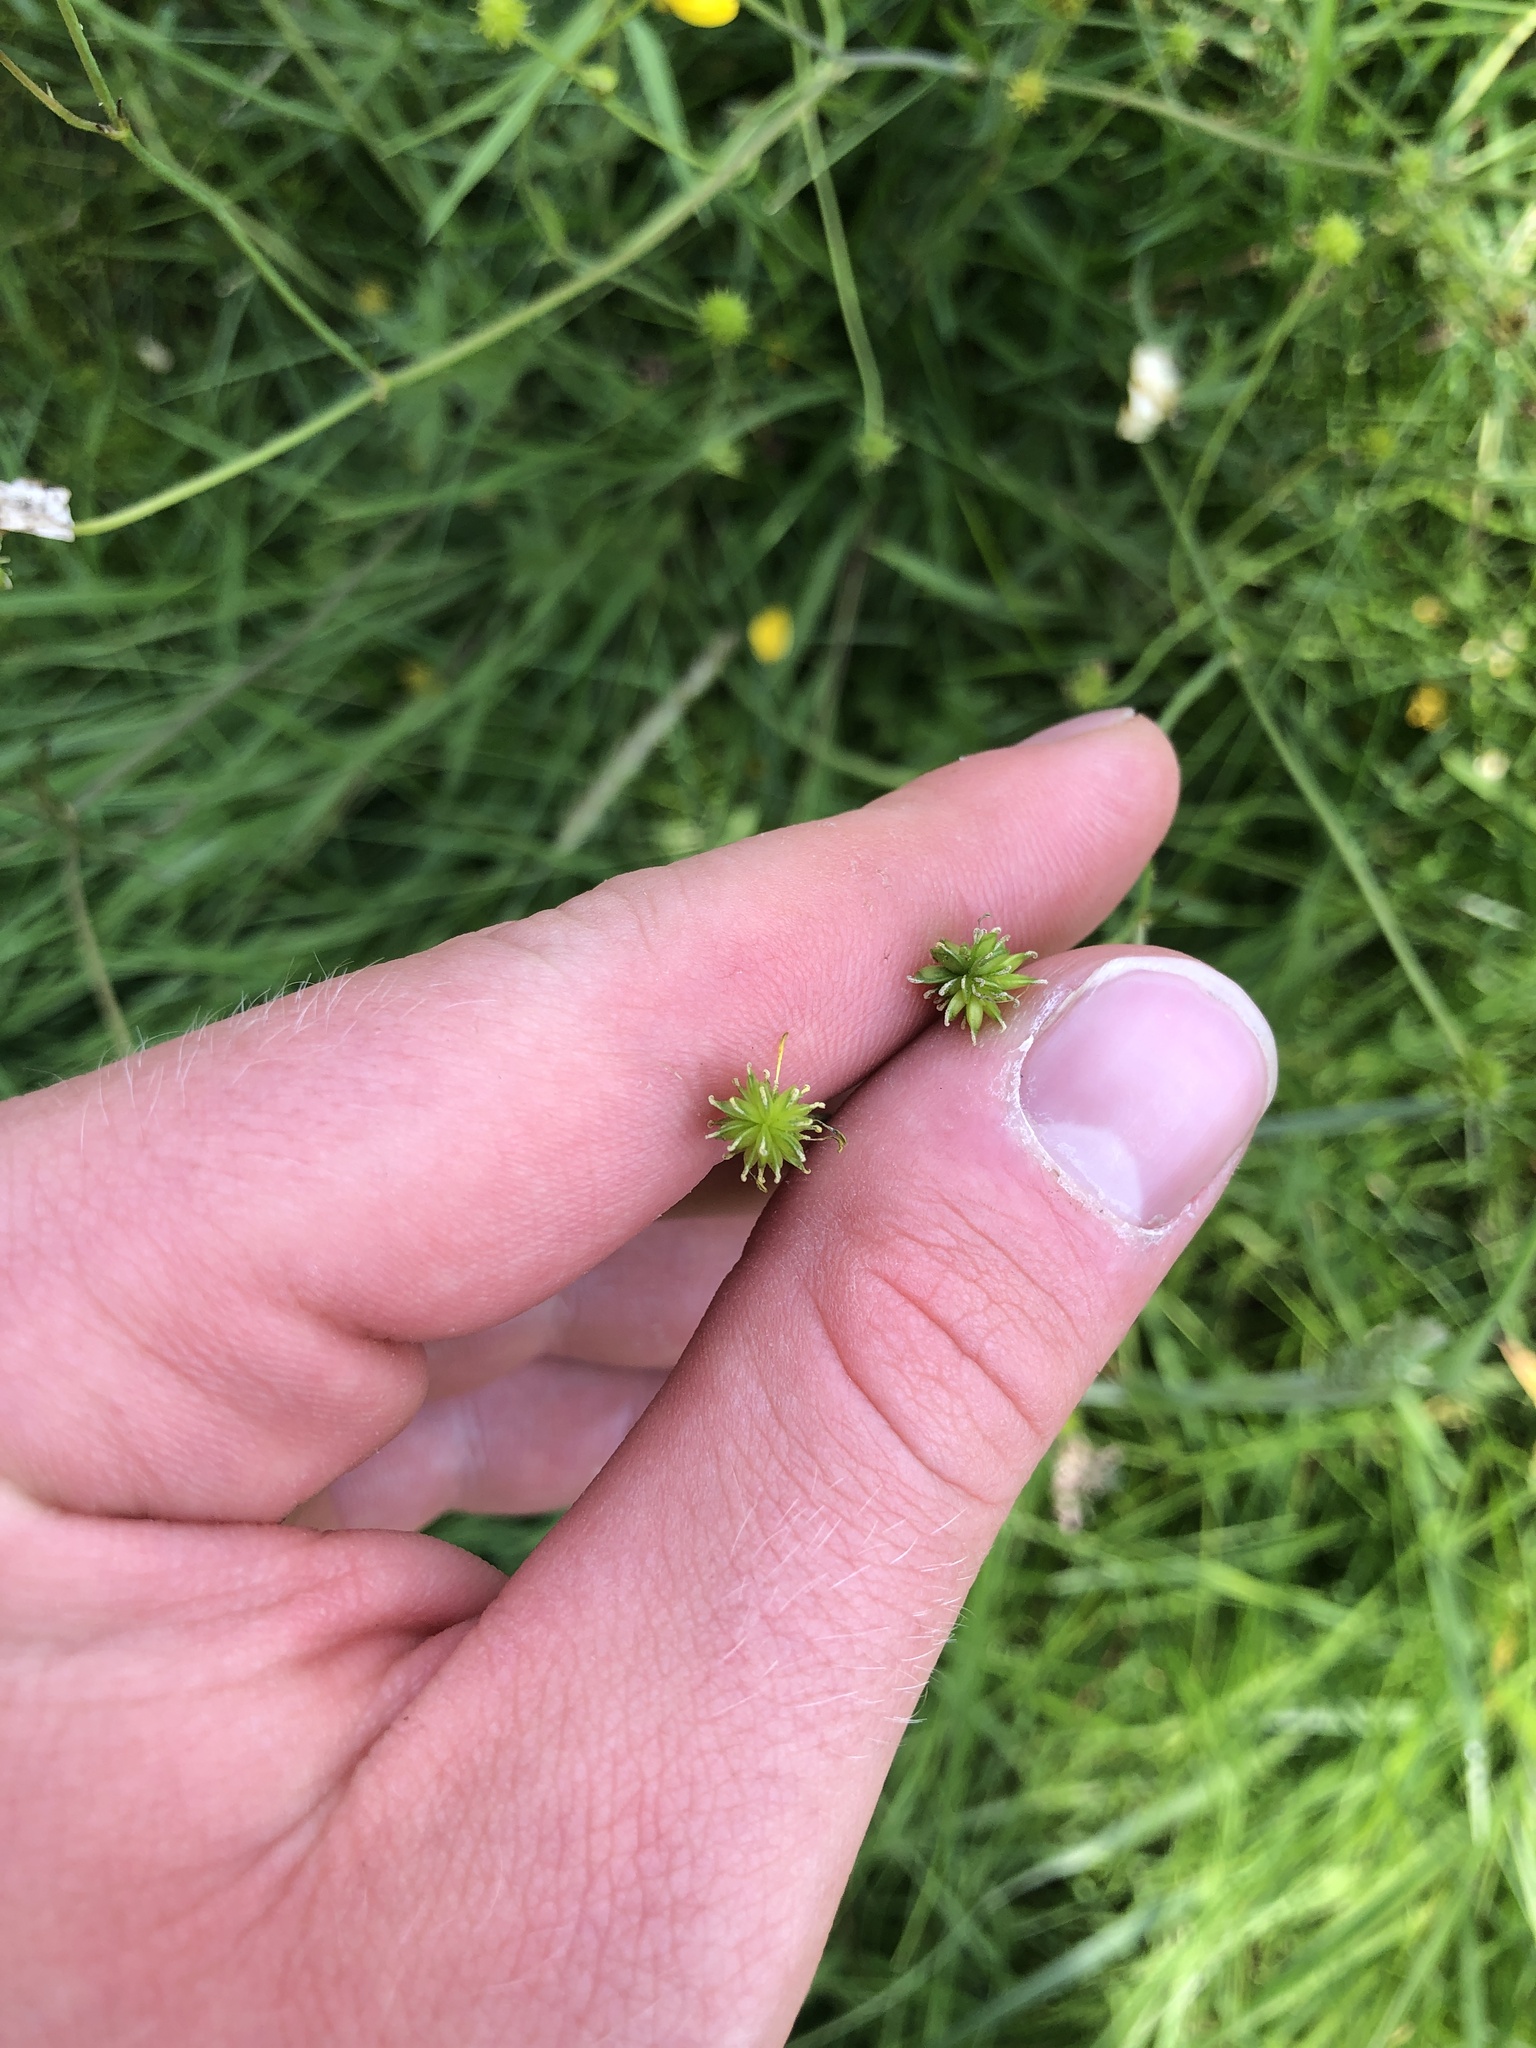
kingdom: Plantae
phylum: Tracheophyta
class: Magnoliopsida
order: Ranunculales
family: Ranunculaceae
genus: Ranunculus
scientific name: Ranunculus acris
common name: Meadow buttercup
